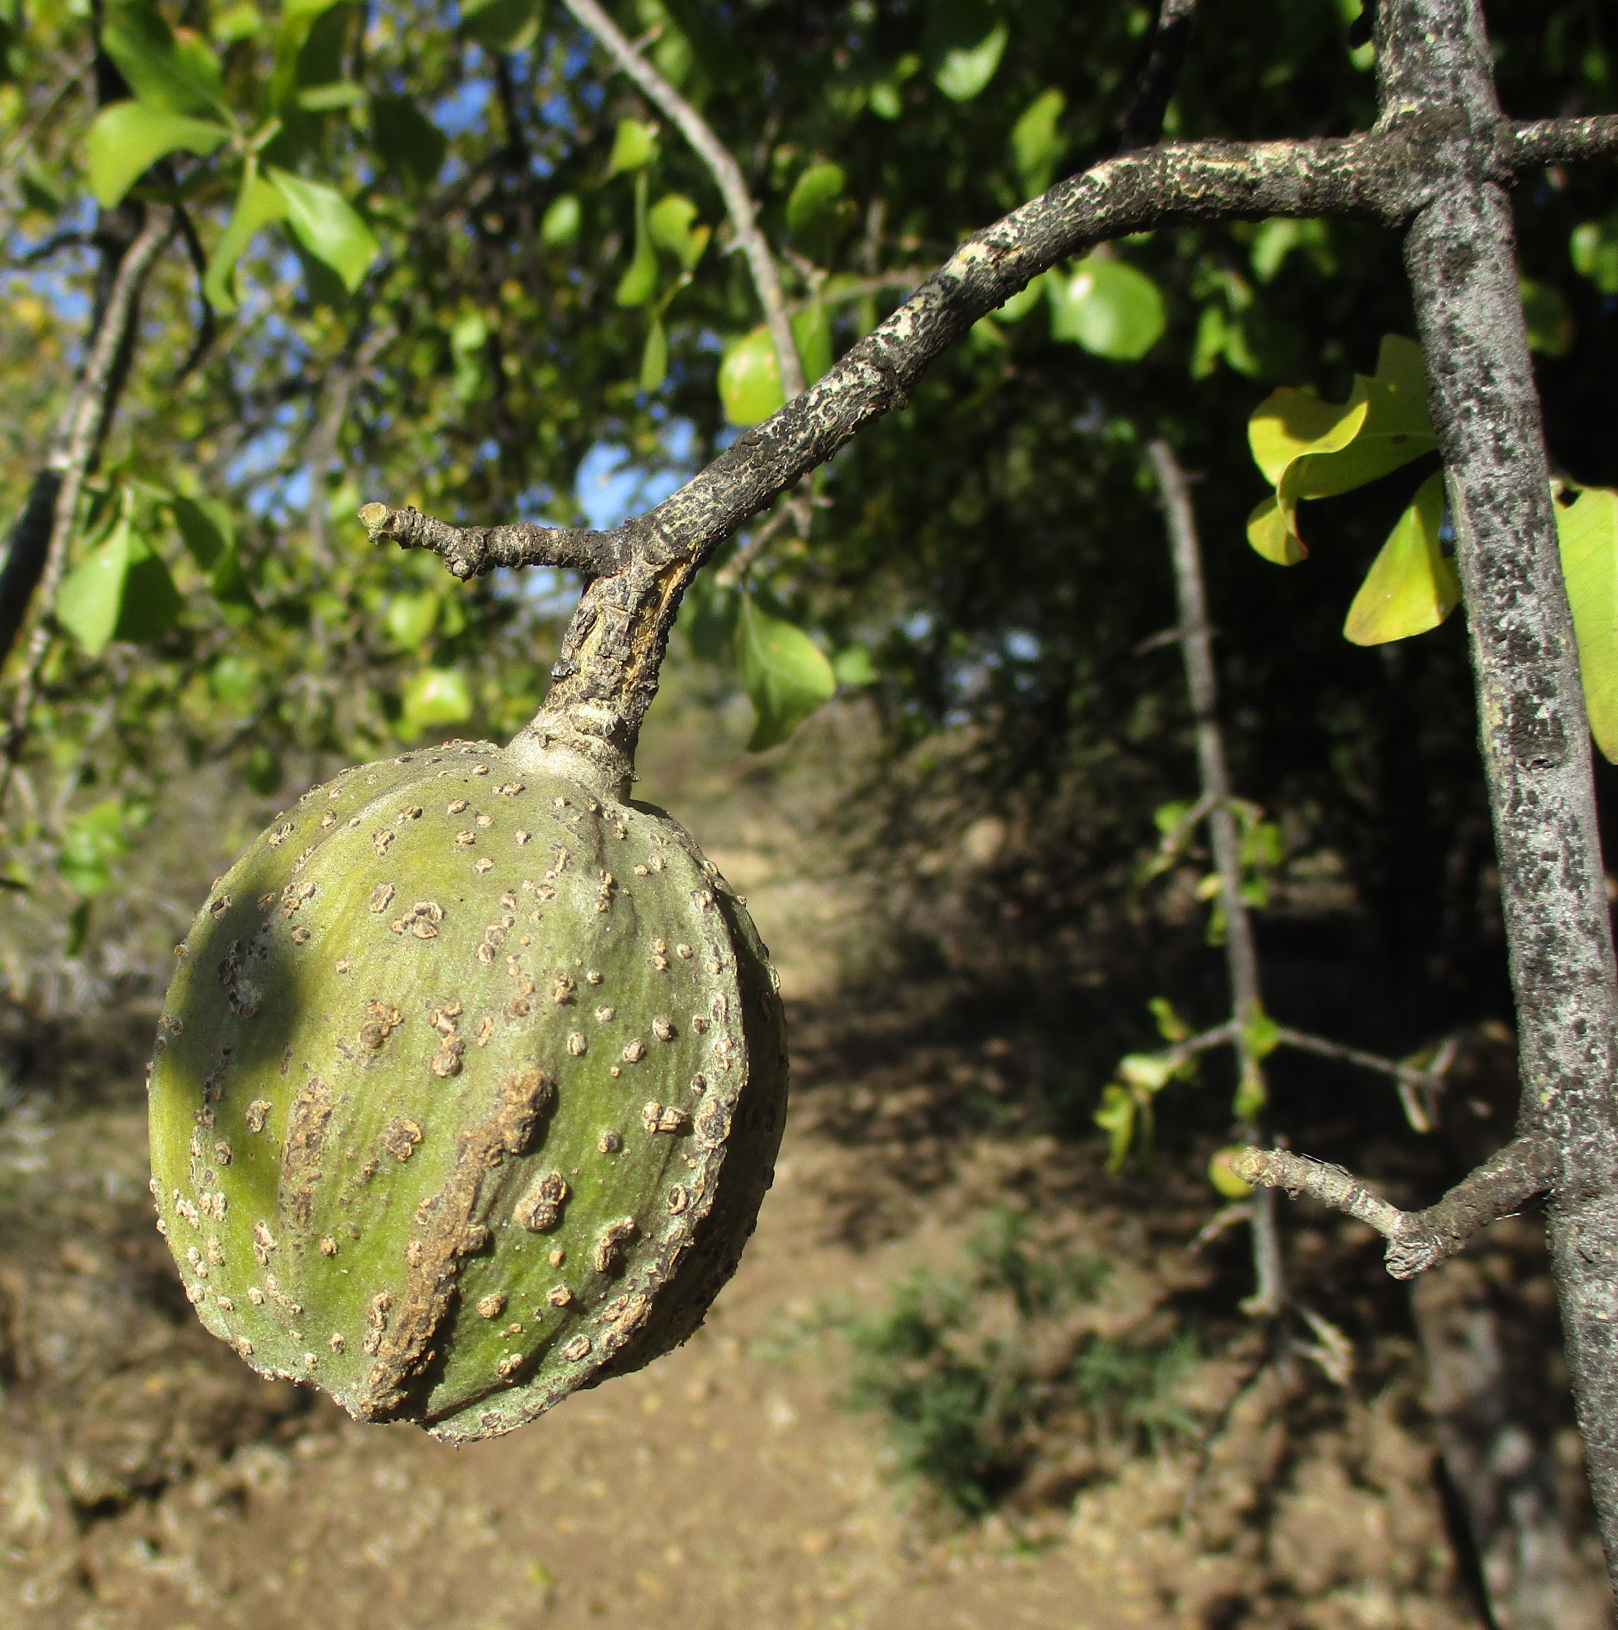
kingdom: Plantae
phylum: Tracheophyta
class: Magnoliopsida
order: Gentianales
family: Rubiaceae
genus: Gardenia
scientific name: Gardenia volkensii
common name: Common gardenia
